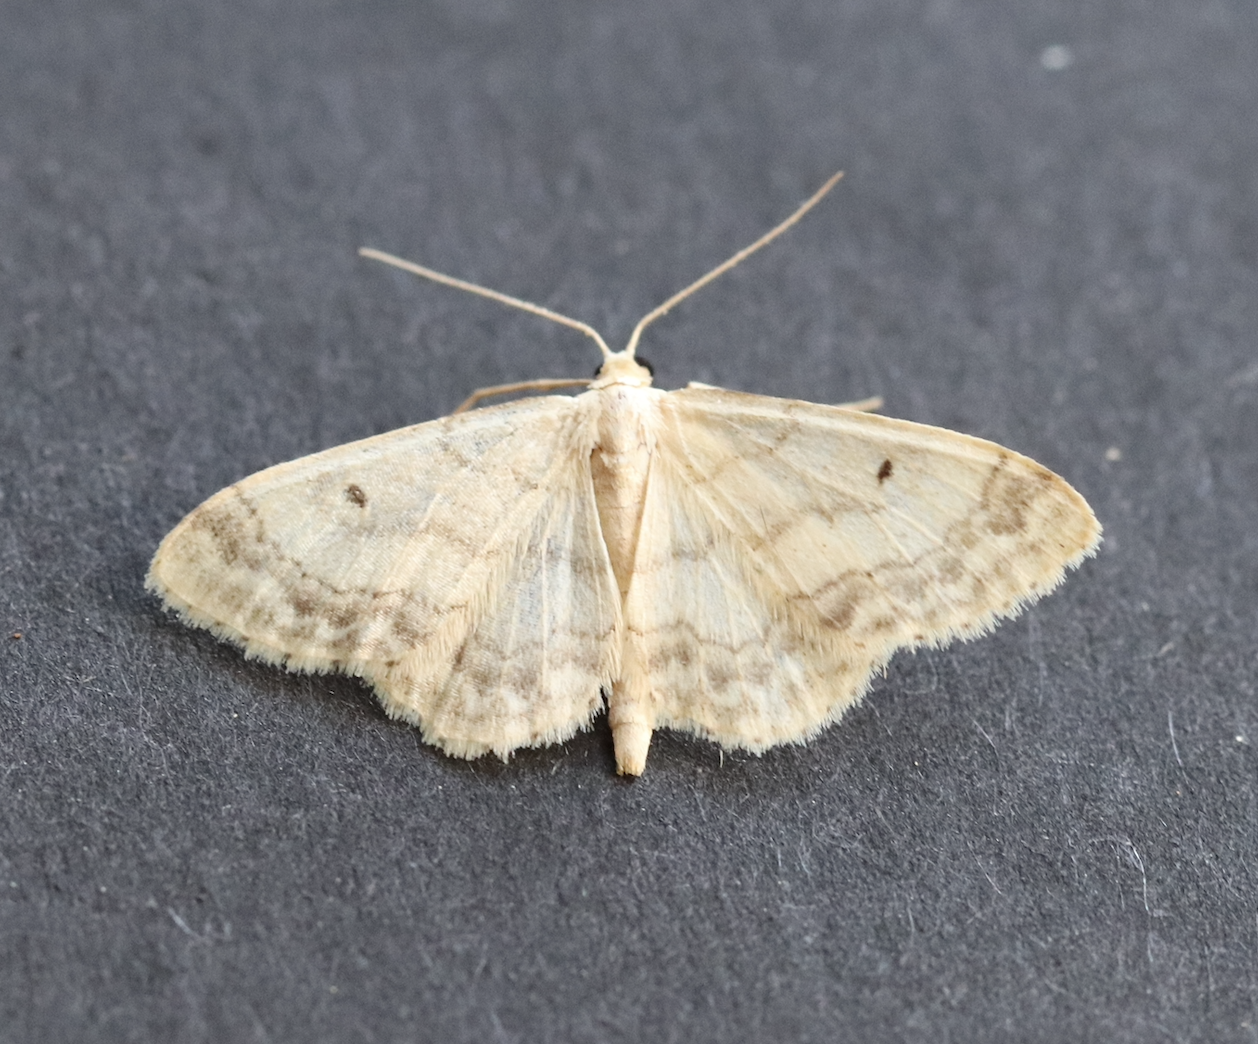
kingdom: Animalia
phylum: Arthropoda
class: Insecta
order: Lepidoptera
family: Geometridae
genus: Idaea
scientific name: Idaea biselata
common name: Small fan-footed wave
